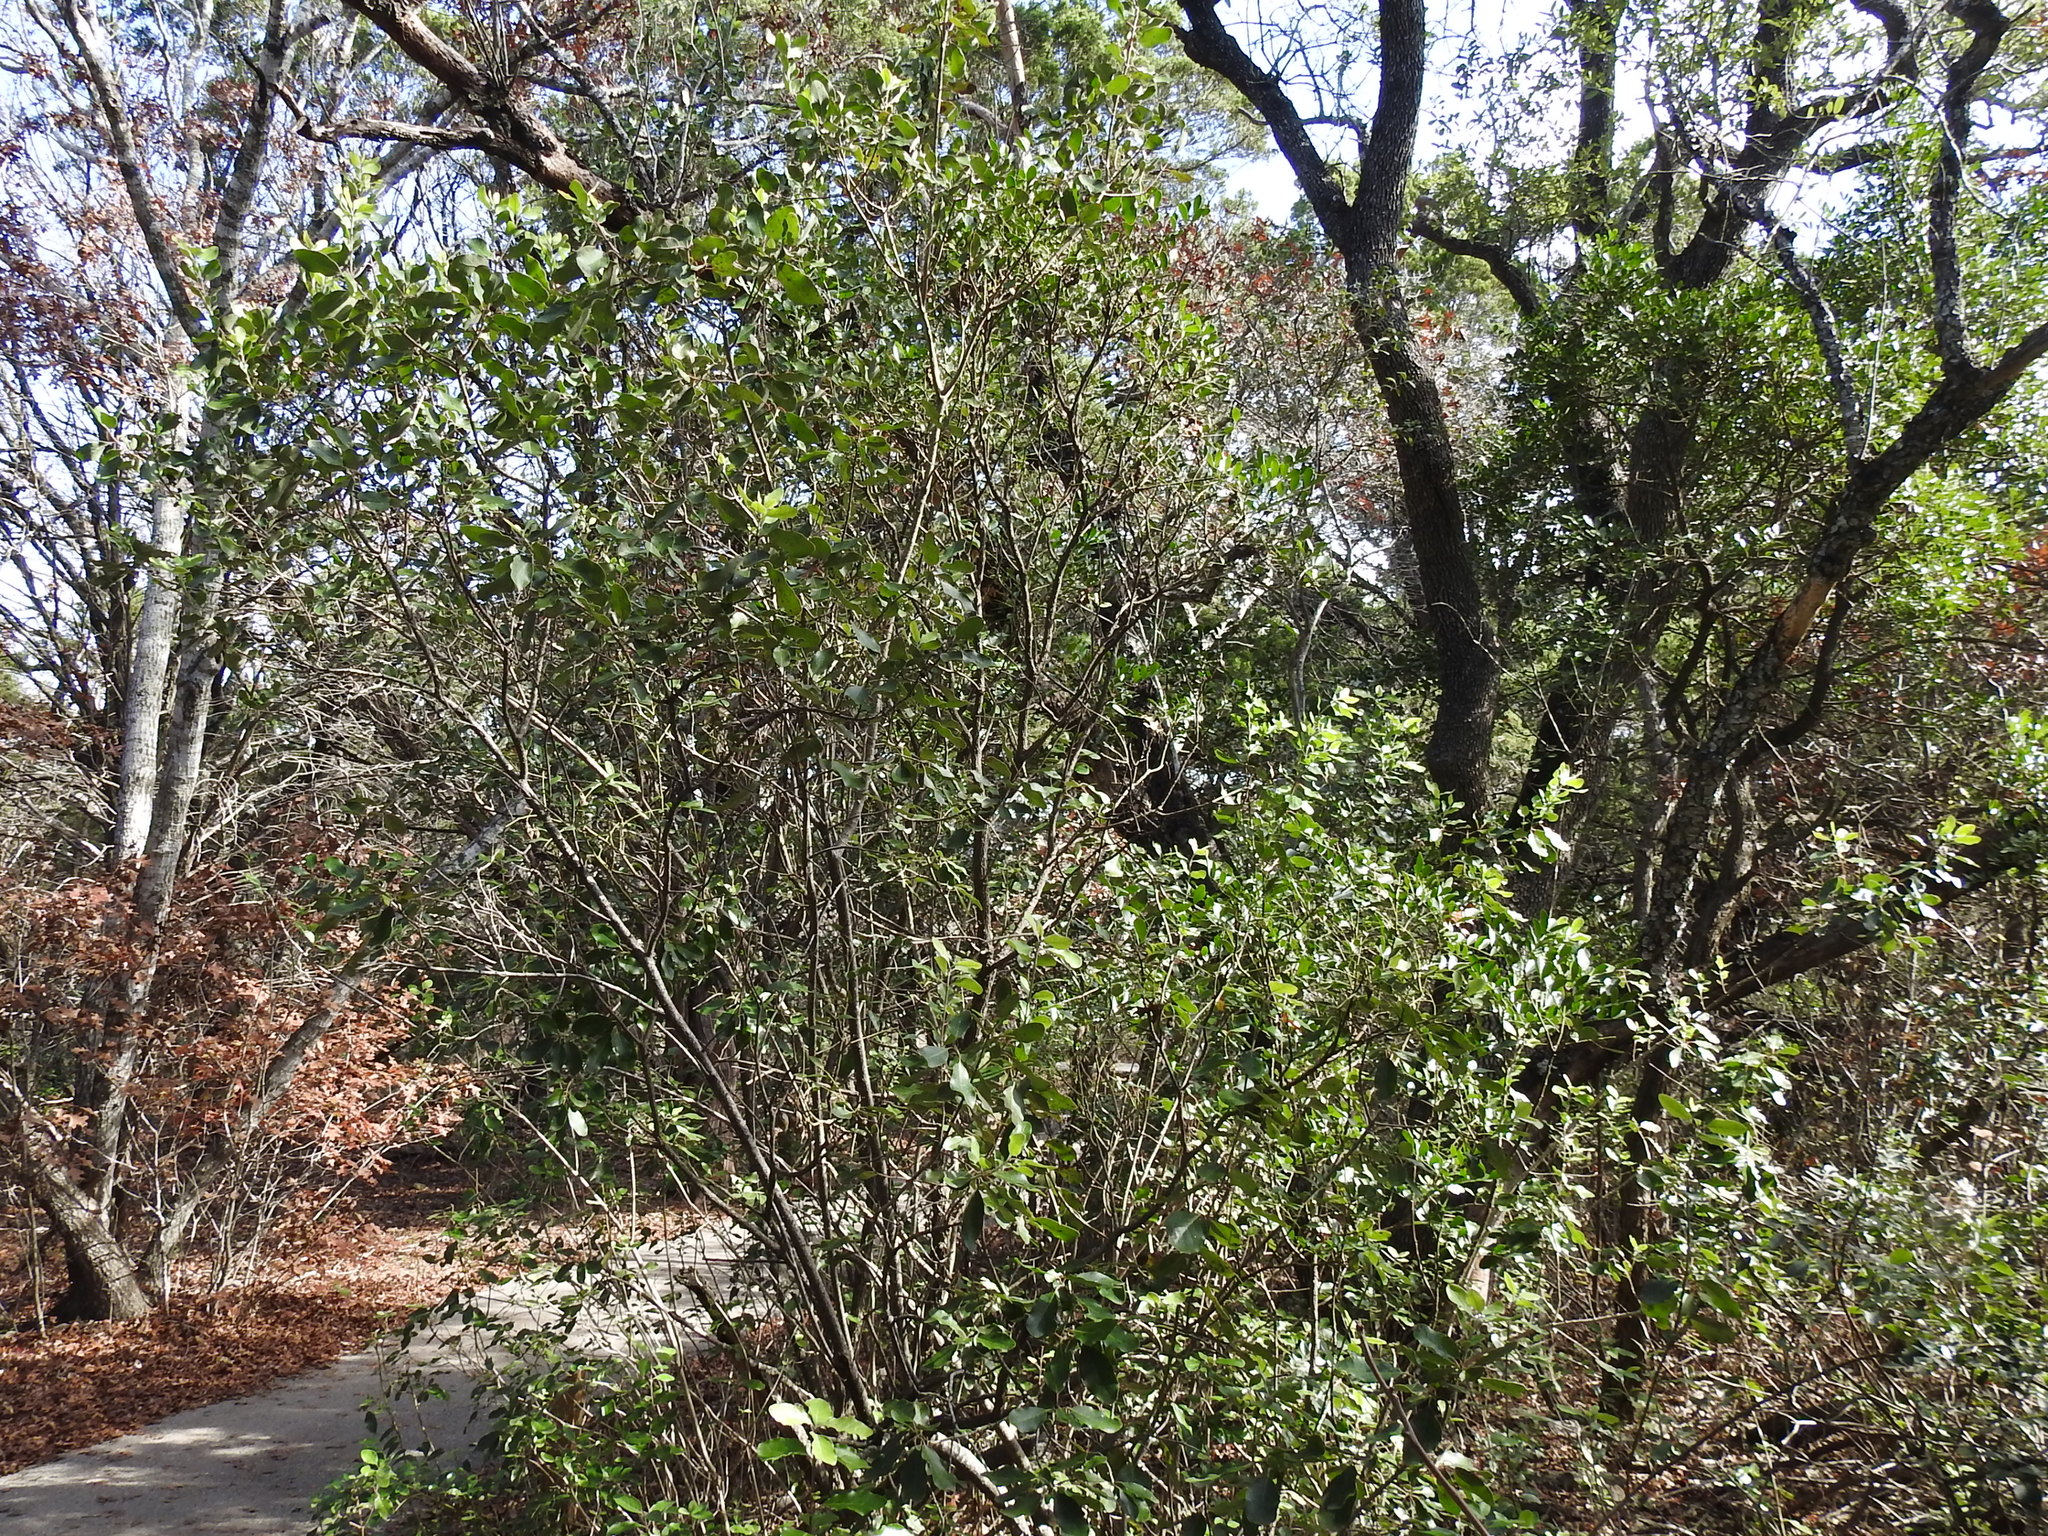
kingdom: Plantae
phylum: Tracheophyta
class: Magnoliopsida
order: Garryales
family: Garryaceae
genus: Garrya
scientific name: Garrya lindheimeri
